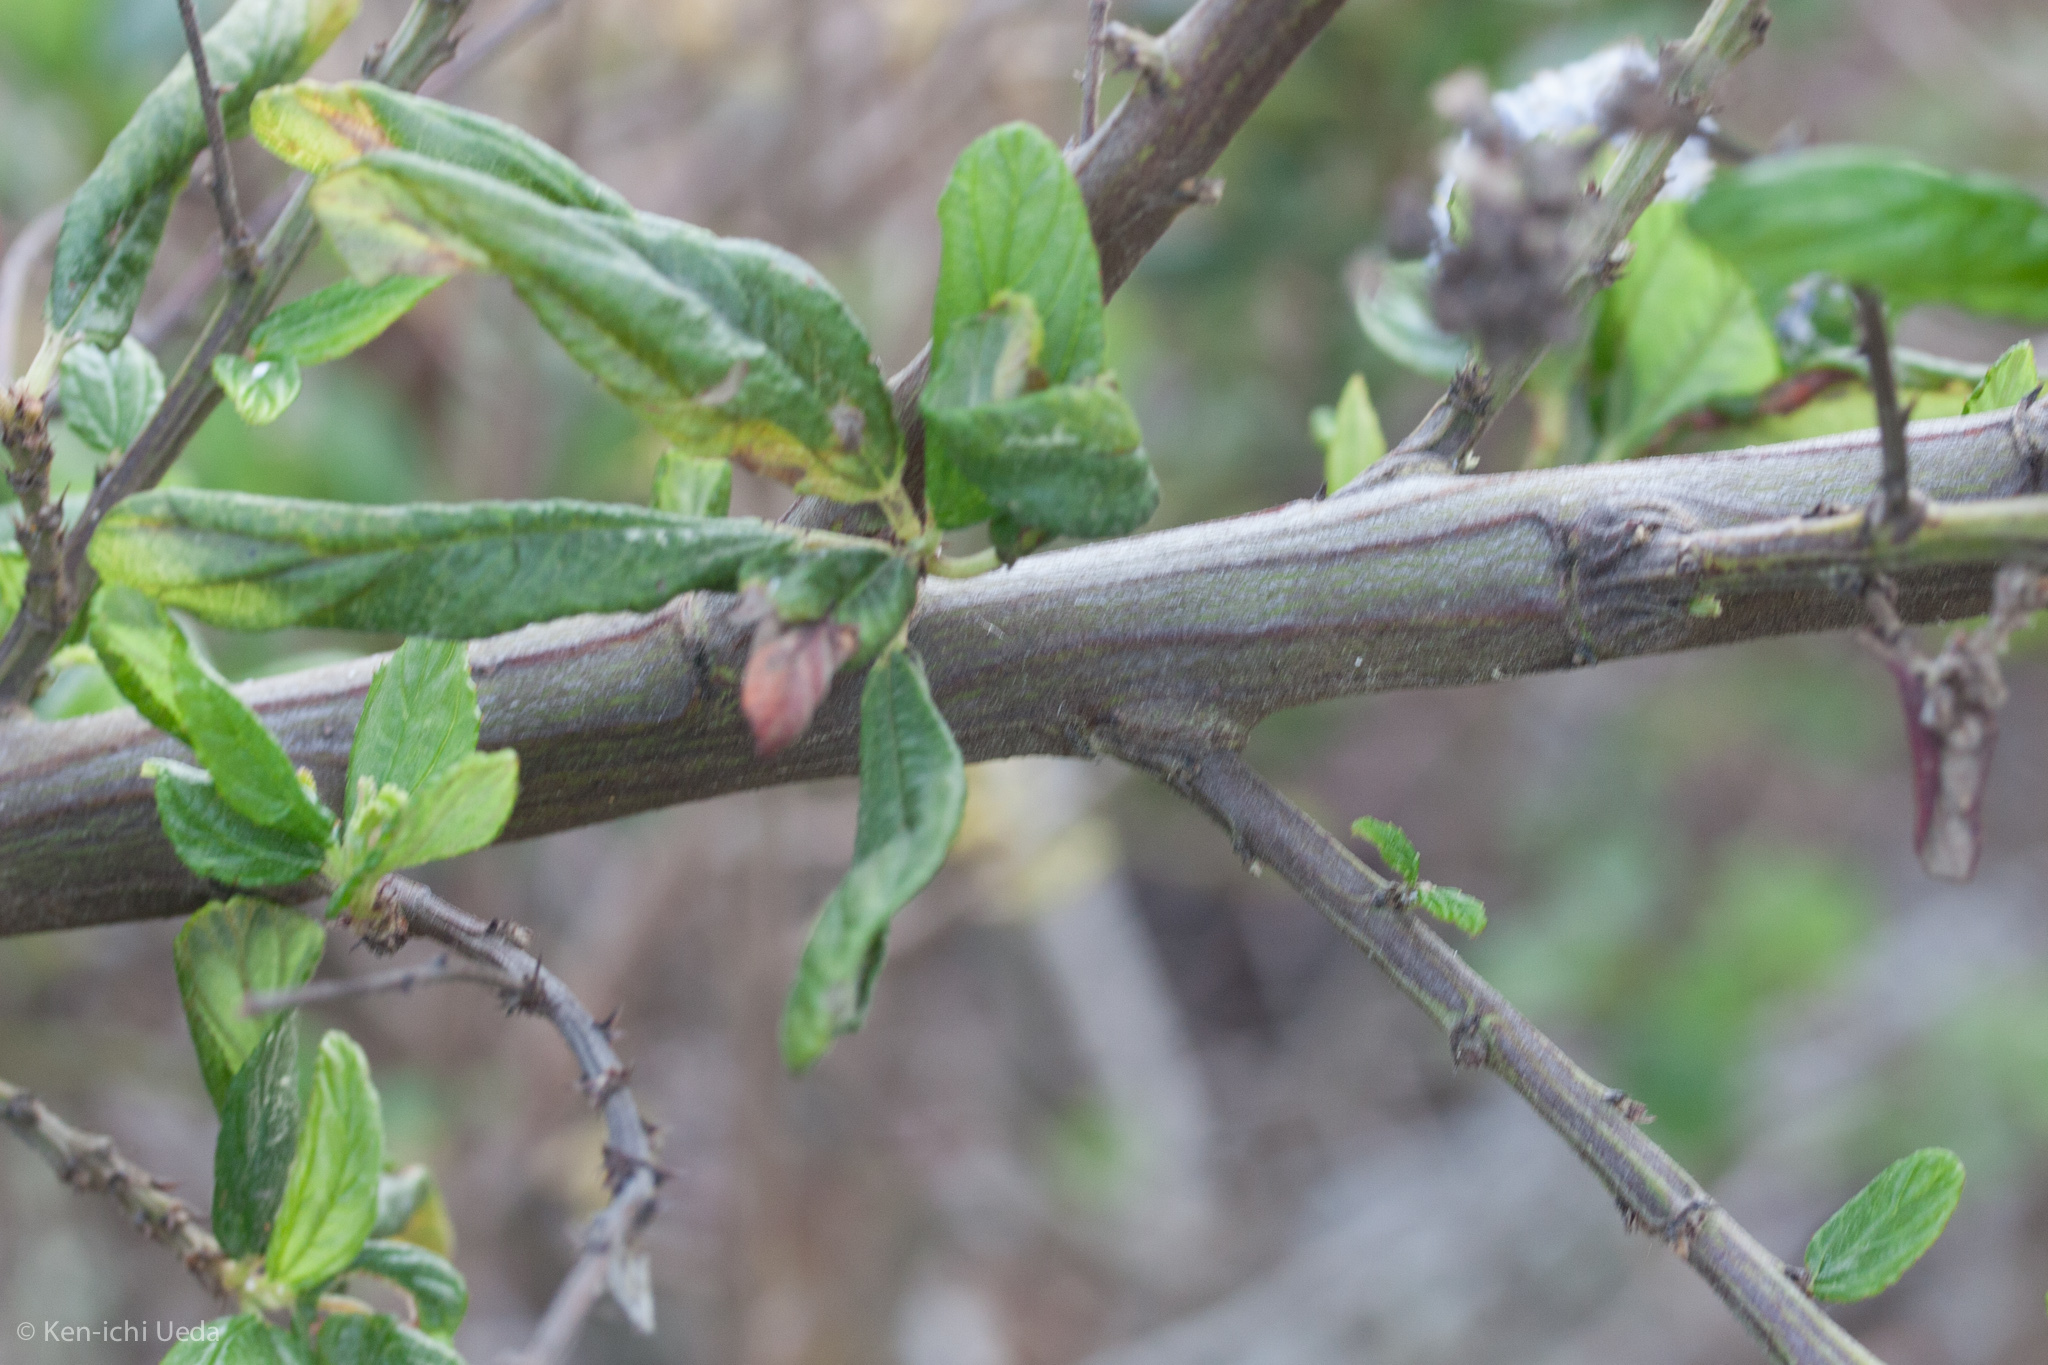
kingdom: Plantae
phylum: Tracheophyta
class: Magnoliopsida
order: Rosales
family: Rhamnaceae
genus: Ceanothus
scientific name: Ceanothus thyrsiflorus
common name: California-lilac
